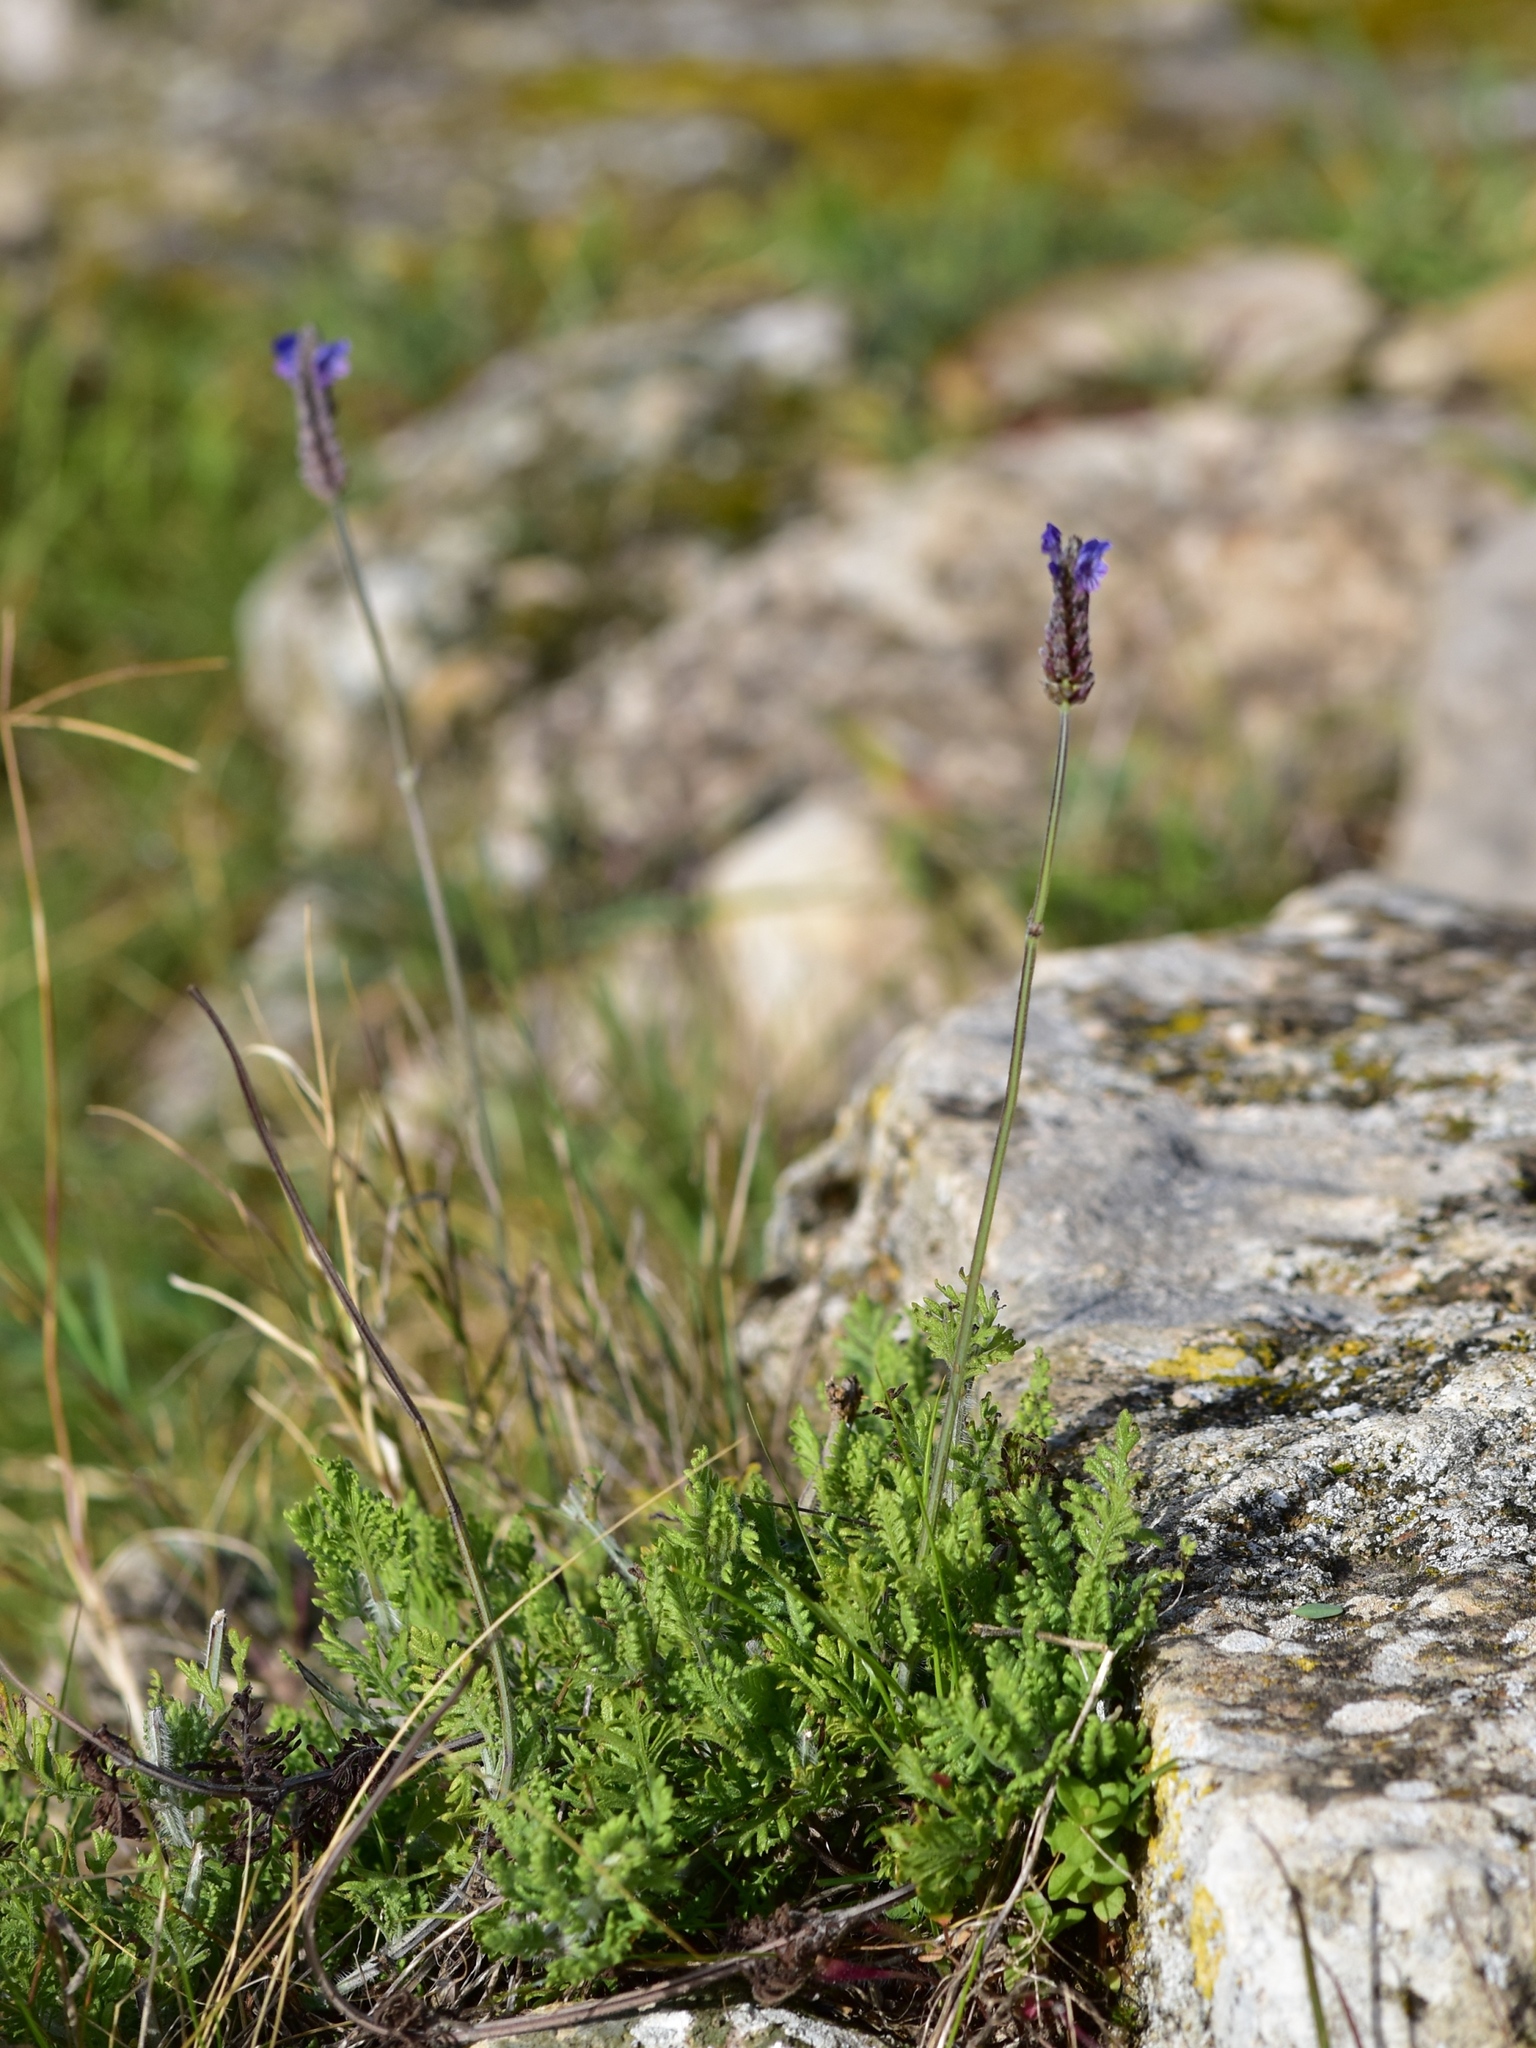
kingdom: Plantae
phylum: Tracheophyta
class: Magnoliopsida
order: Lamiales
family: Lamiaceae
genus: Lavandula
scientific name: Lavandula multifida
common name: Fern-leaf lavender
